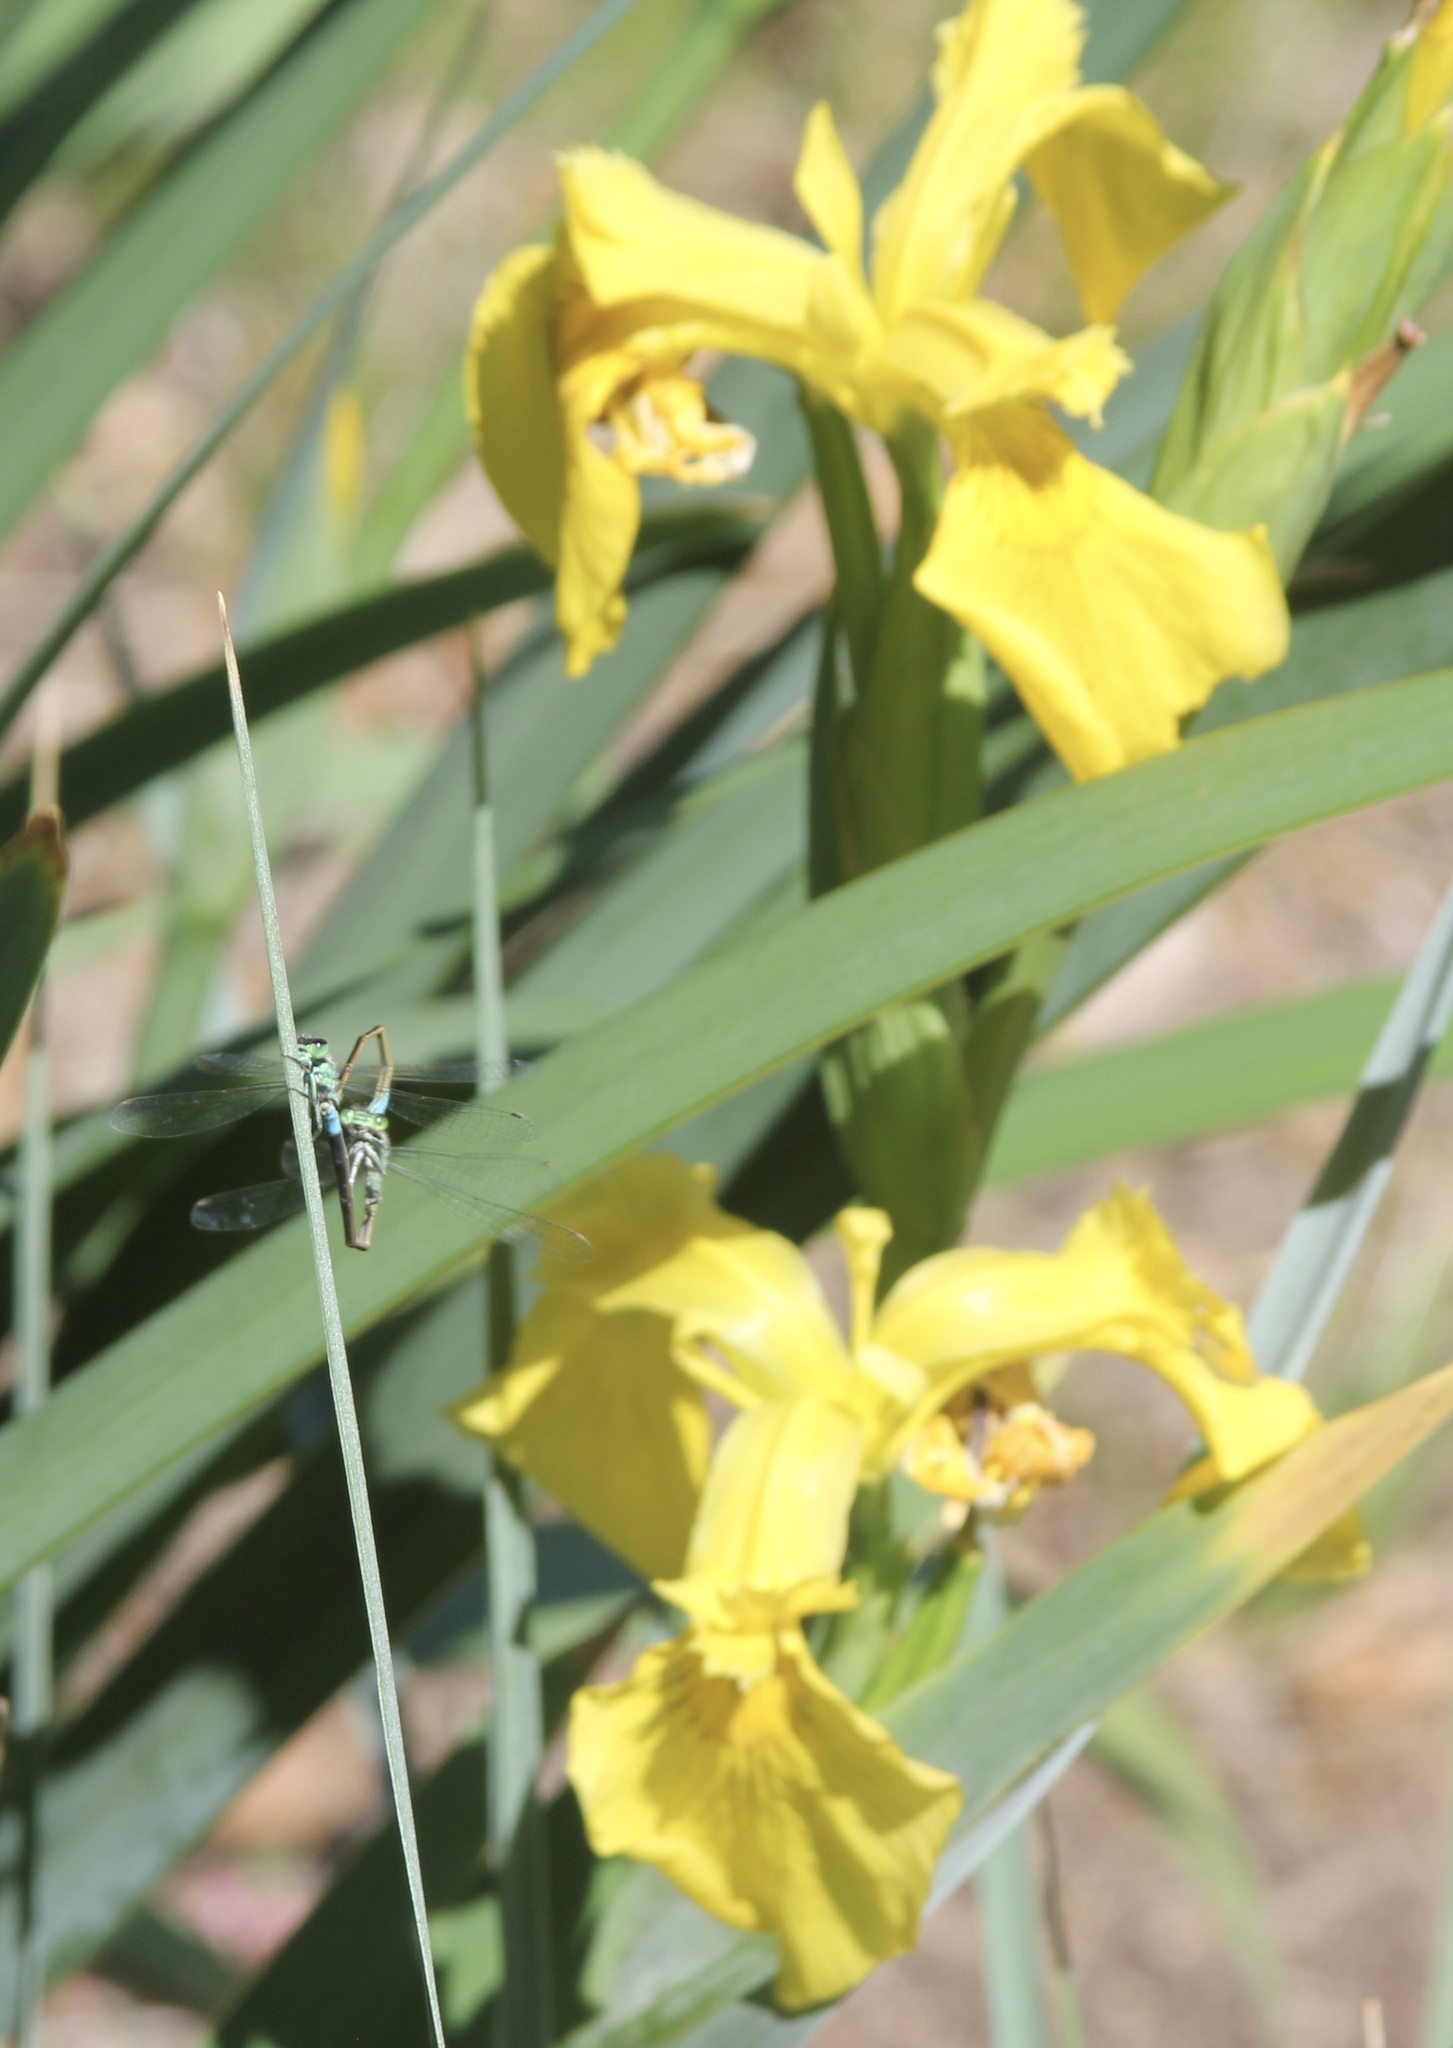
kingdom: Animalia
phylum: Arthropoda
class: Insecta
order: Odonata
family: Coenagrionidae
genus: Ischnura
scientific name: Ischnura ramburii
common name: Rambur's forktail
